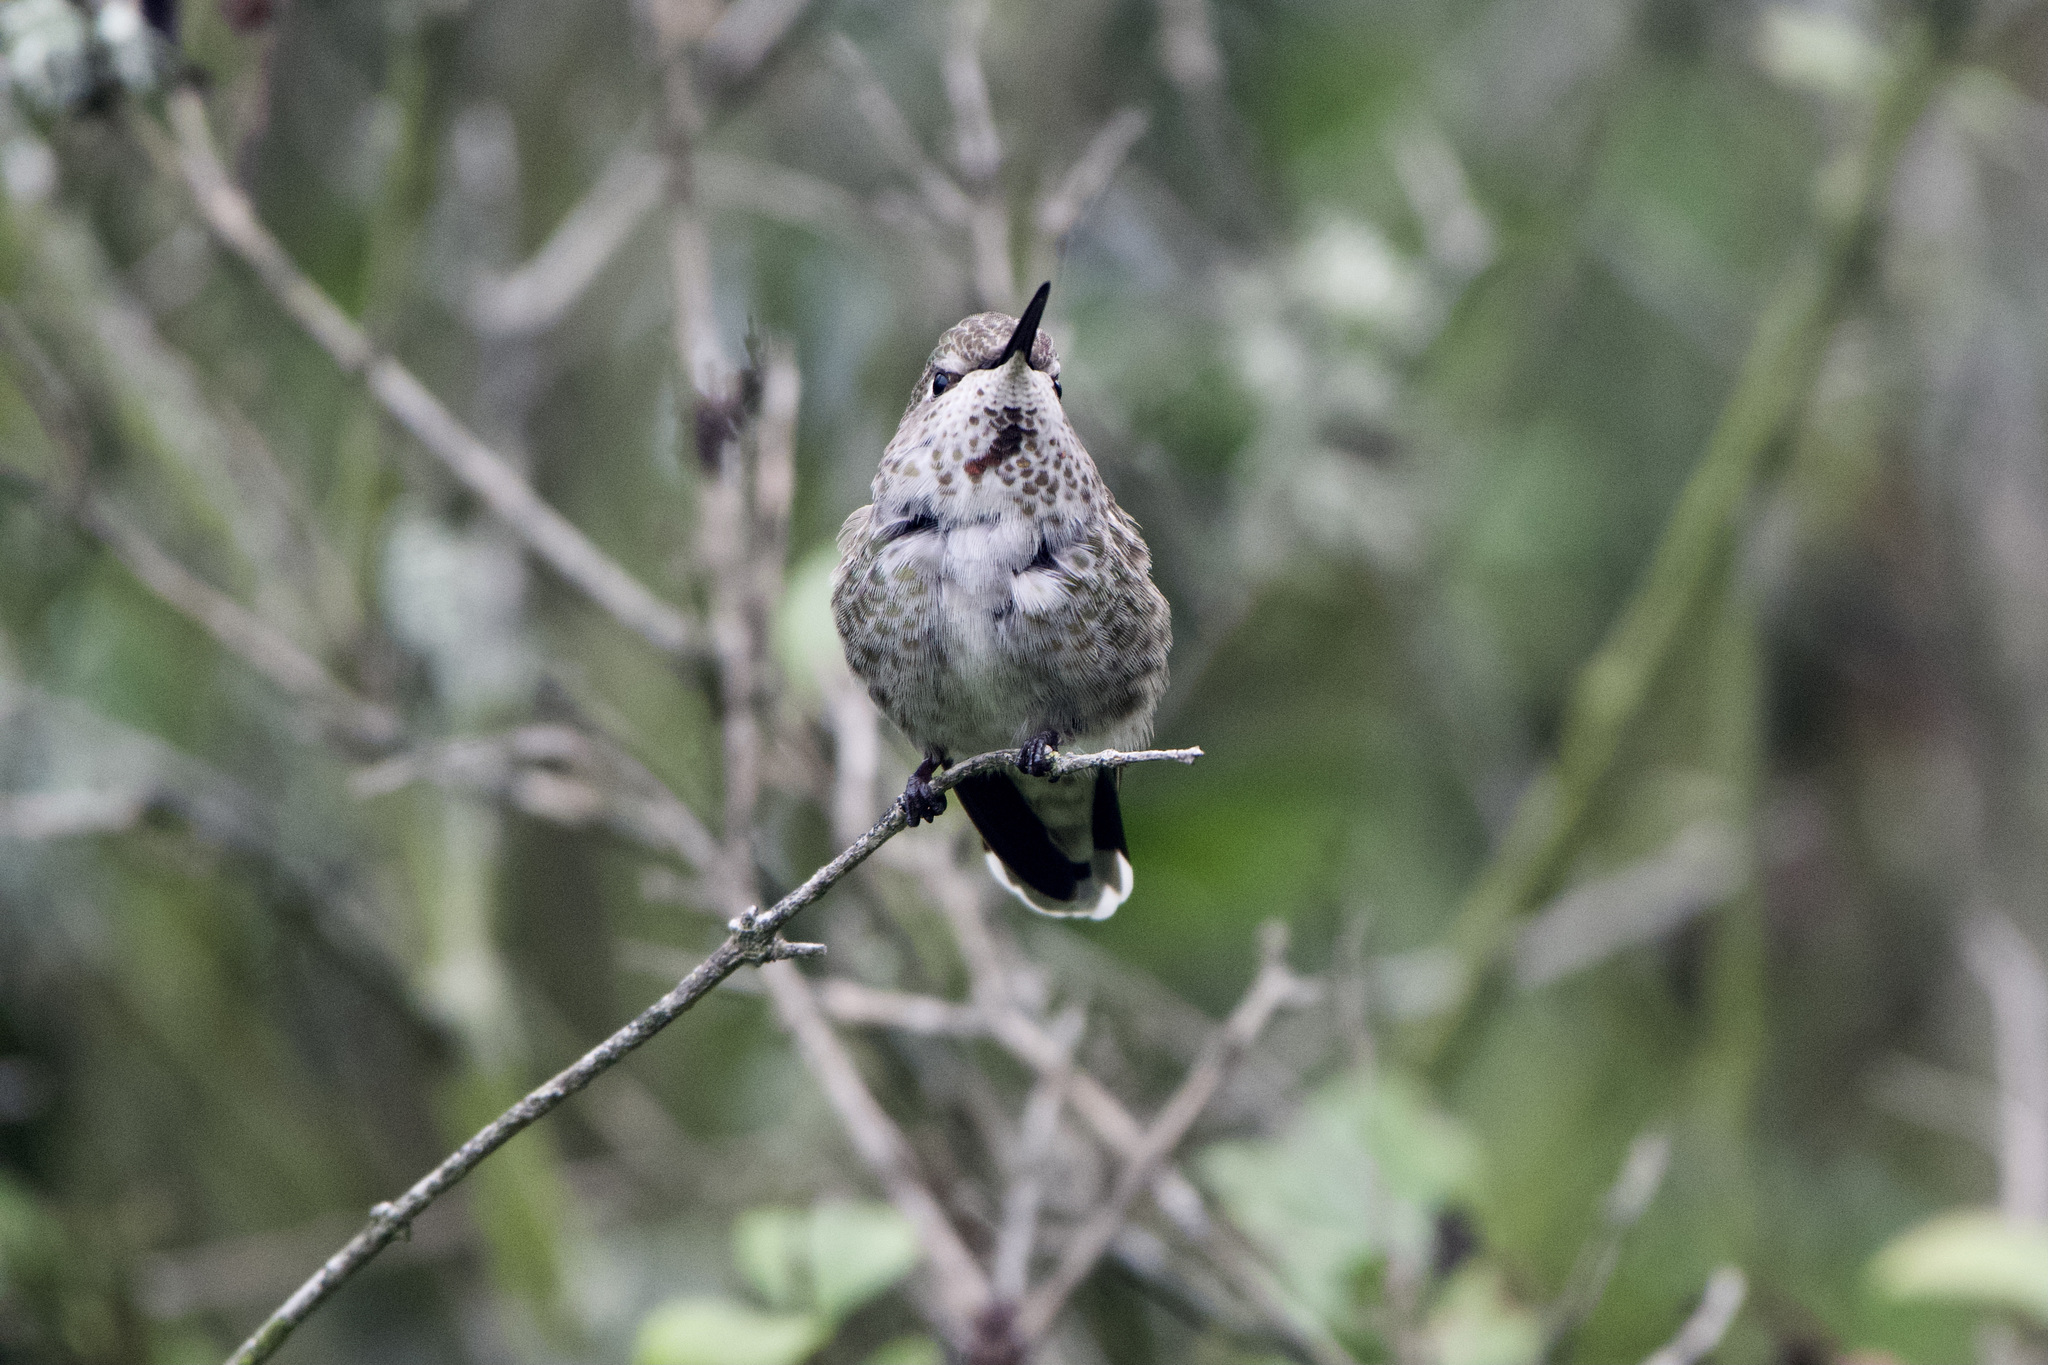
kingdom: Animalia
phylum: Chordata
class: Aves
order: Apodiformes
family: Trochilidae
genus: Calypte
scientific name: Calypte anna
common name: Anna's hummingbird
